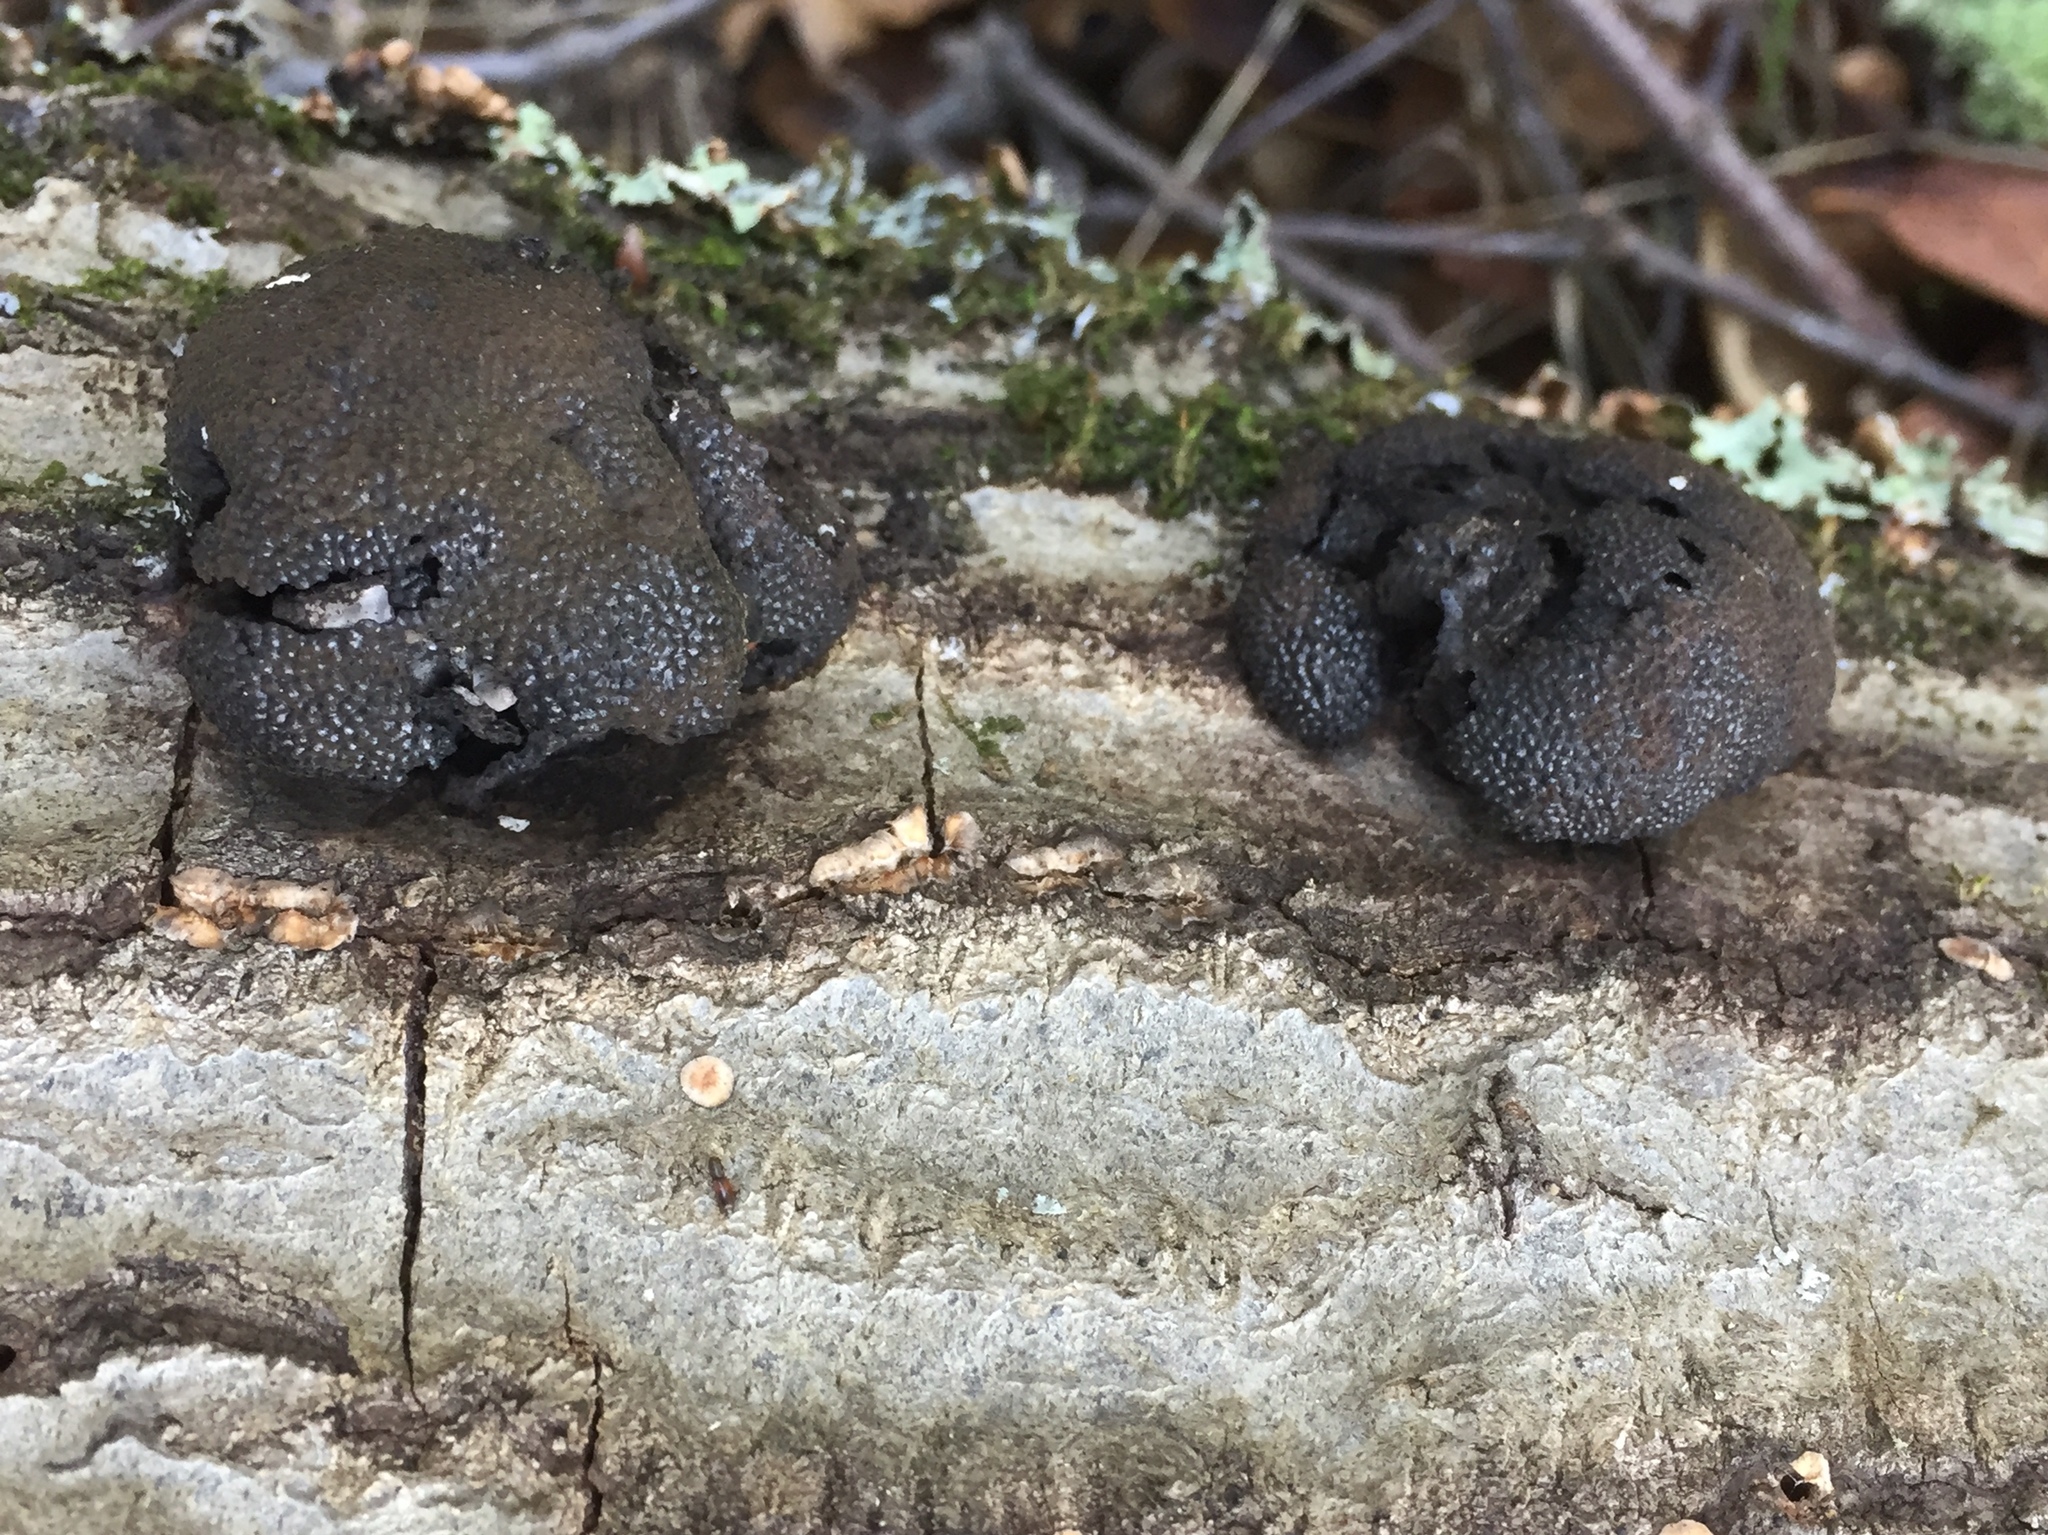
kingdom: Fungi
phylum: Ascomycota
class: Sordariomycetes
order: Xylariales
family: Hypoxylaceae
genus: Annulohypoxylon
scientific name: Annulohypoxylon thouarsianum
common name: Cramp balls
